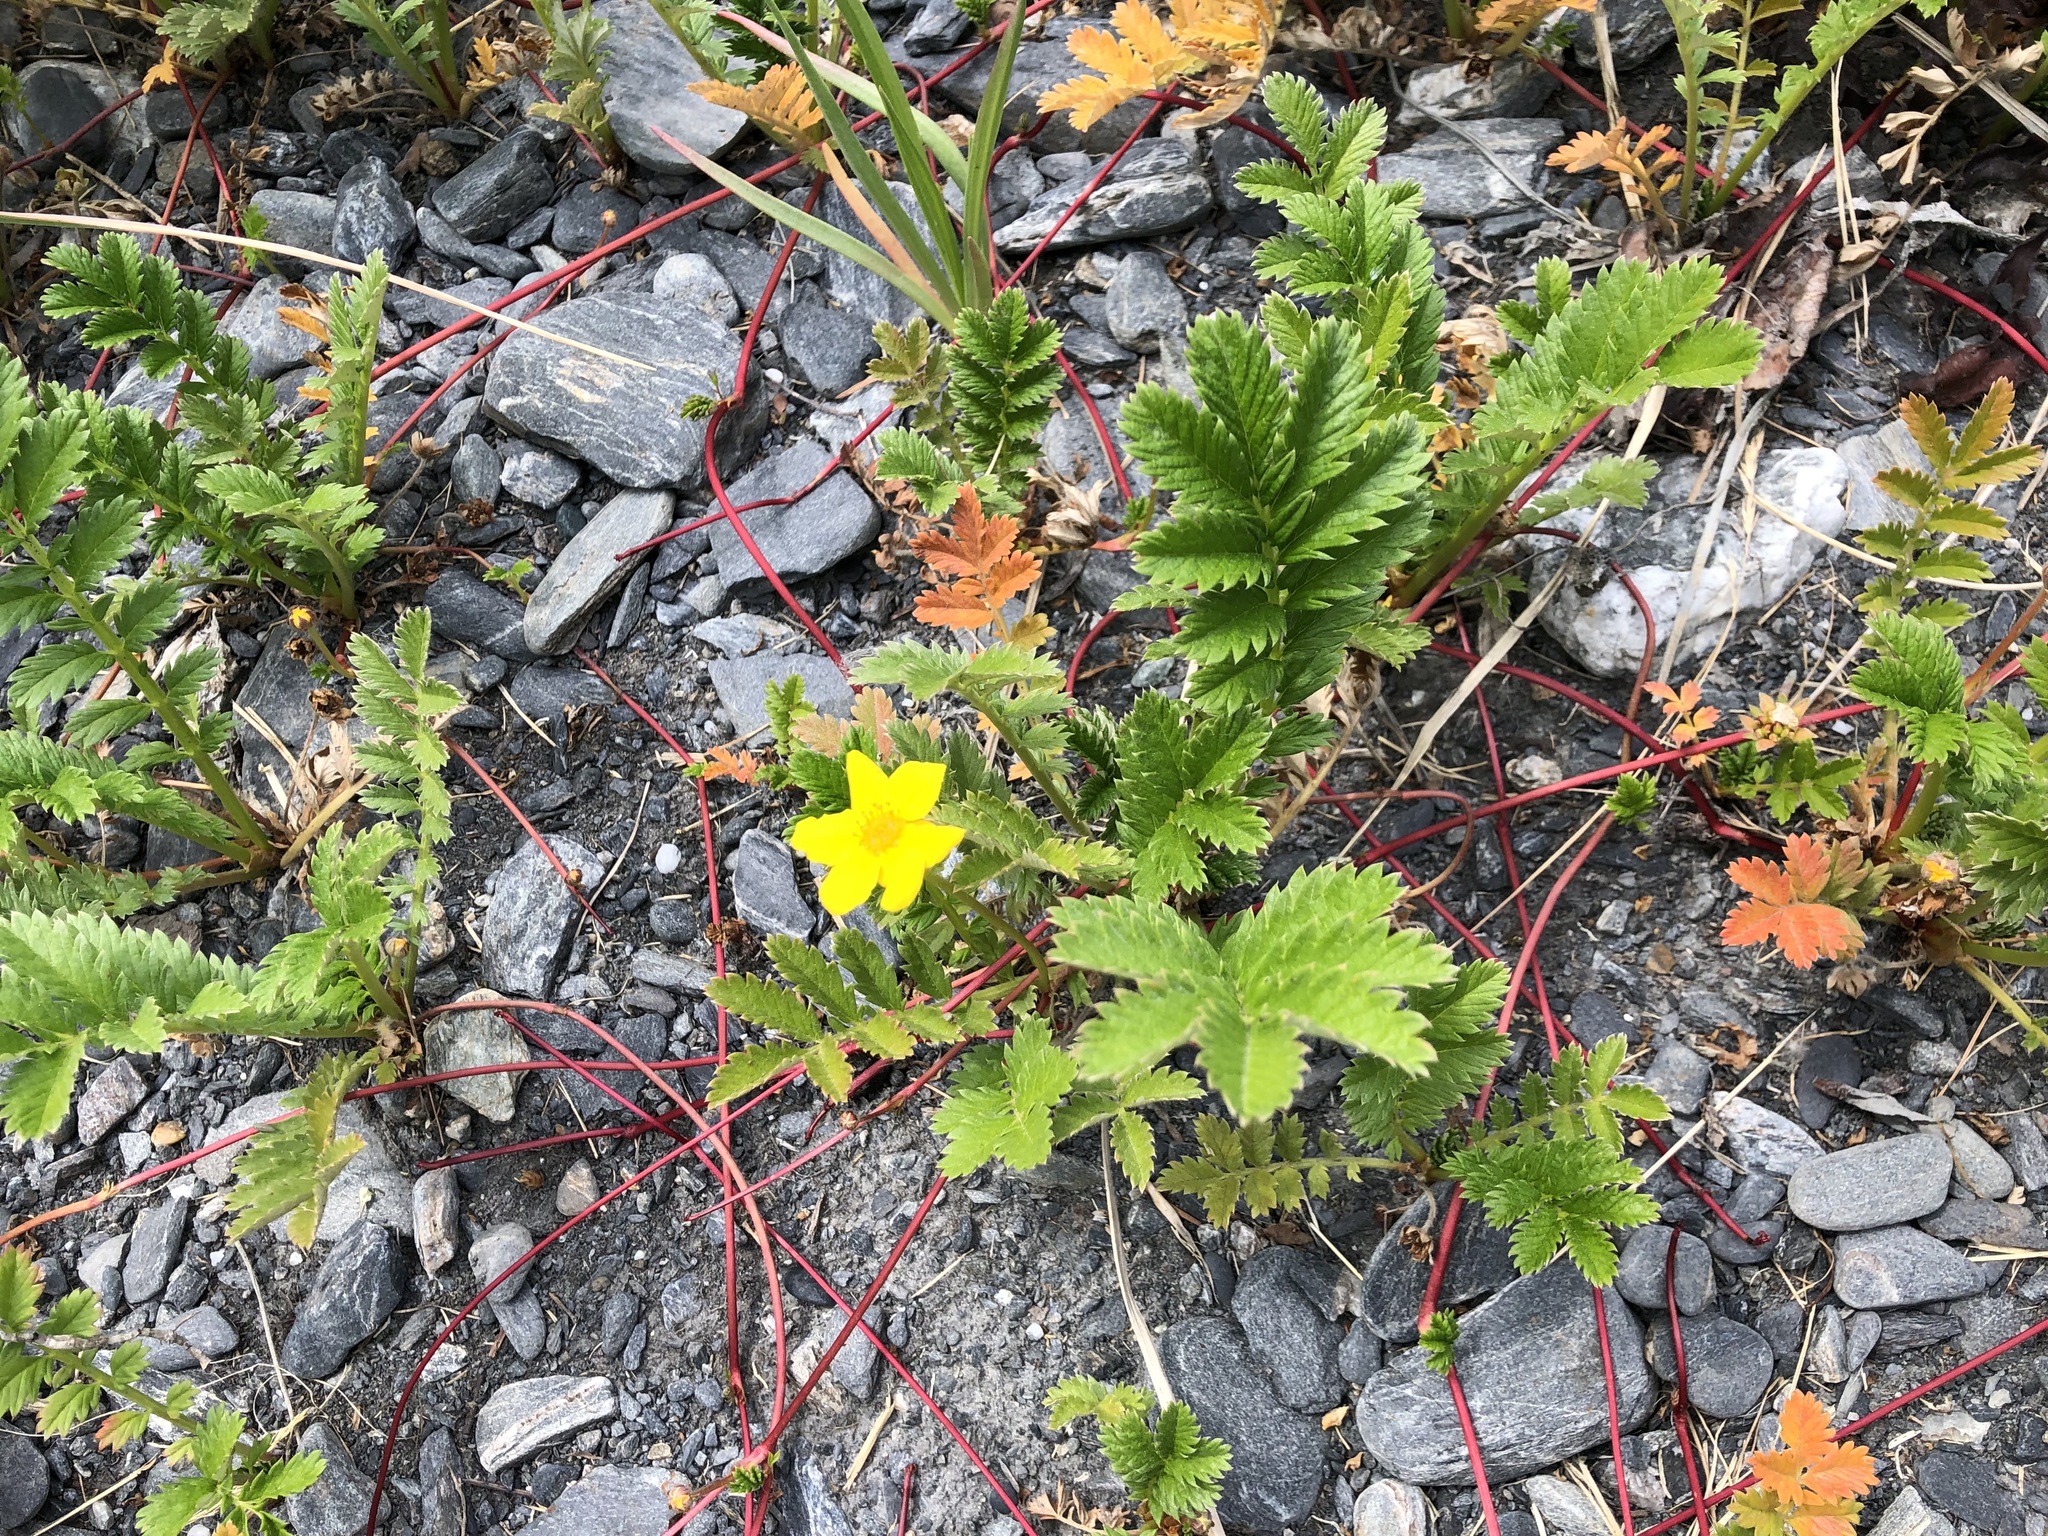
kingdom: Plantae
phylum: Tracheophyta
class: Magnoliopsida
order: Rosales
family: Rosaceae
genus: Argentina
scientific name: Argentina anserina
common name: Common silverweed
